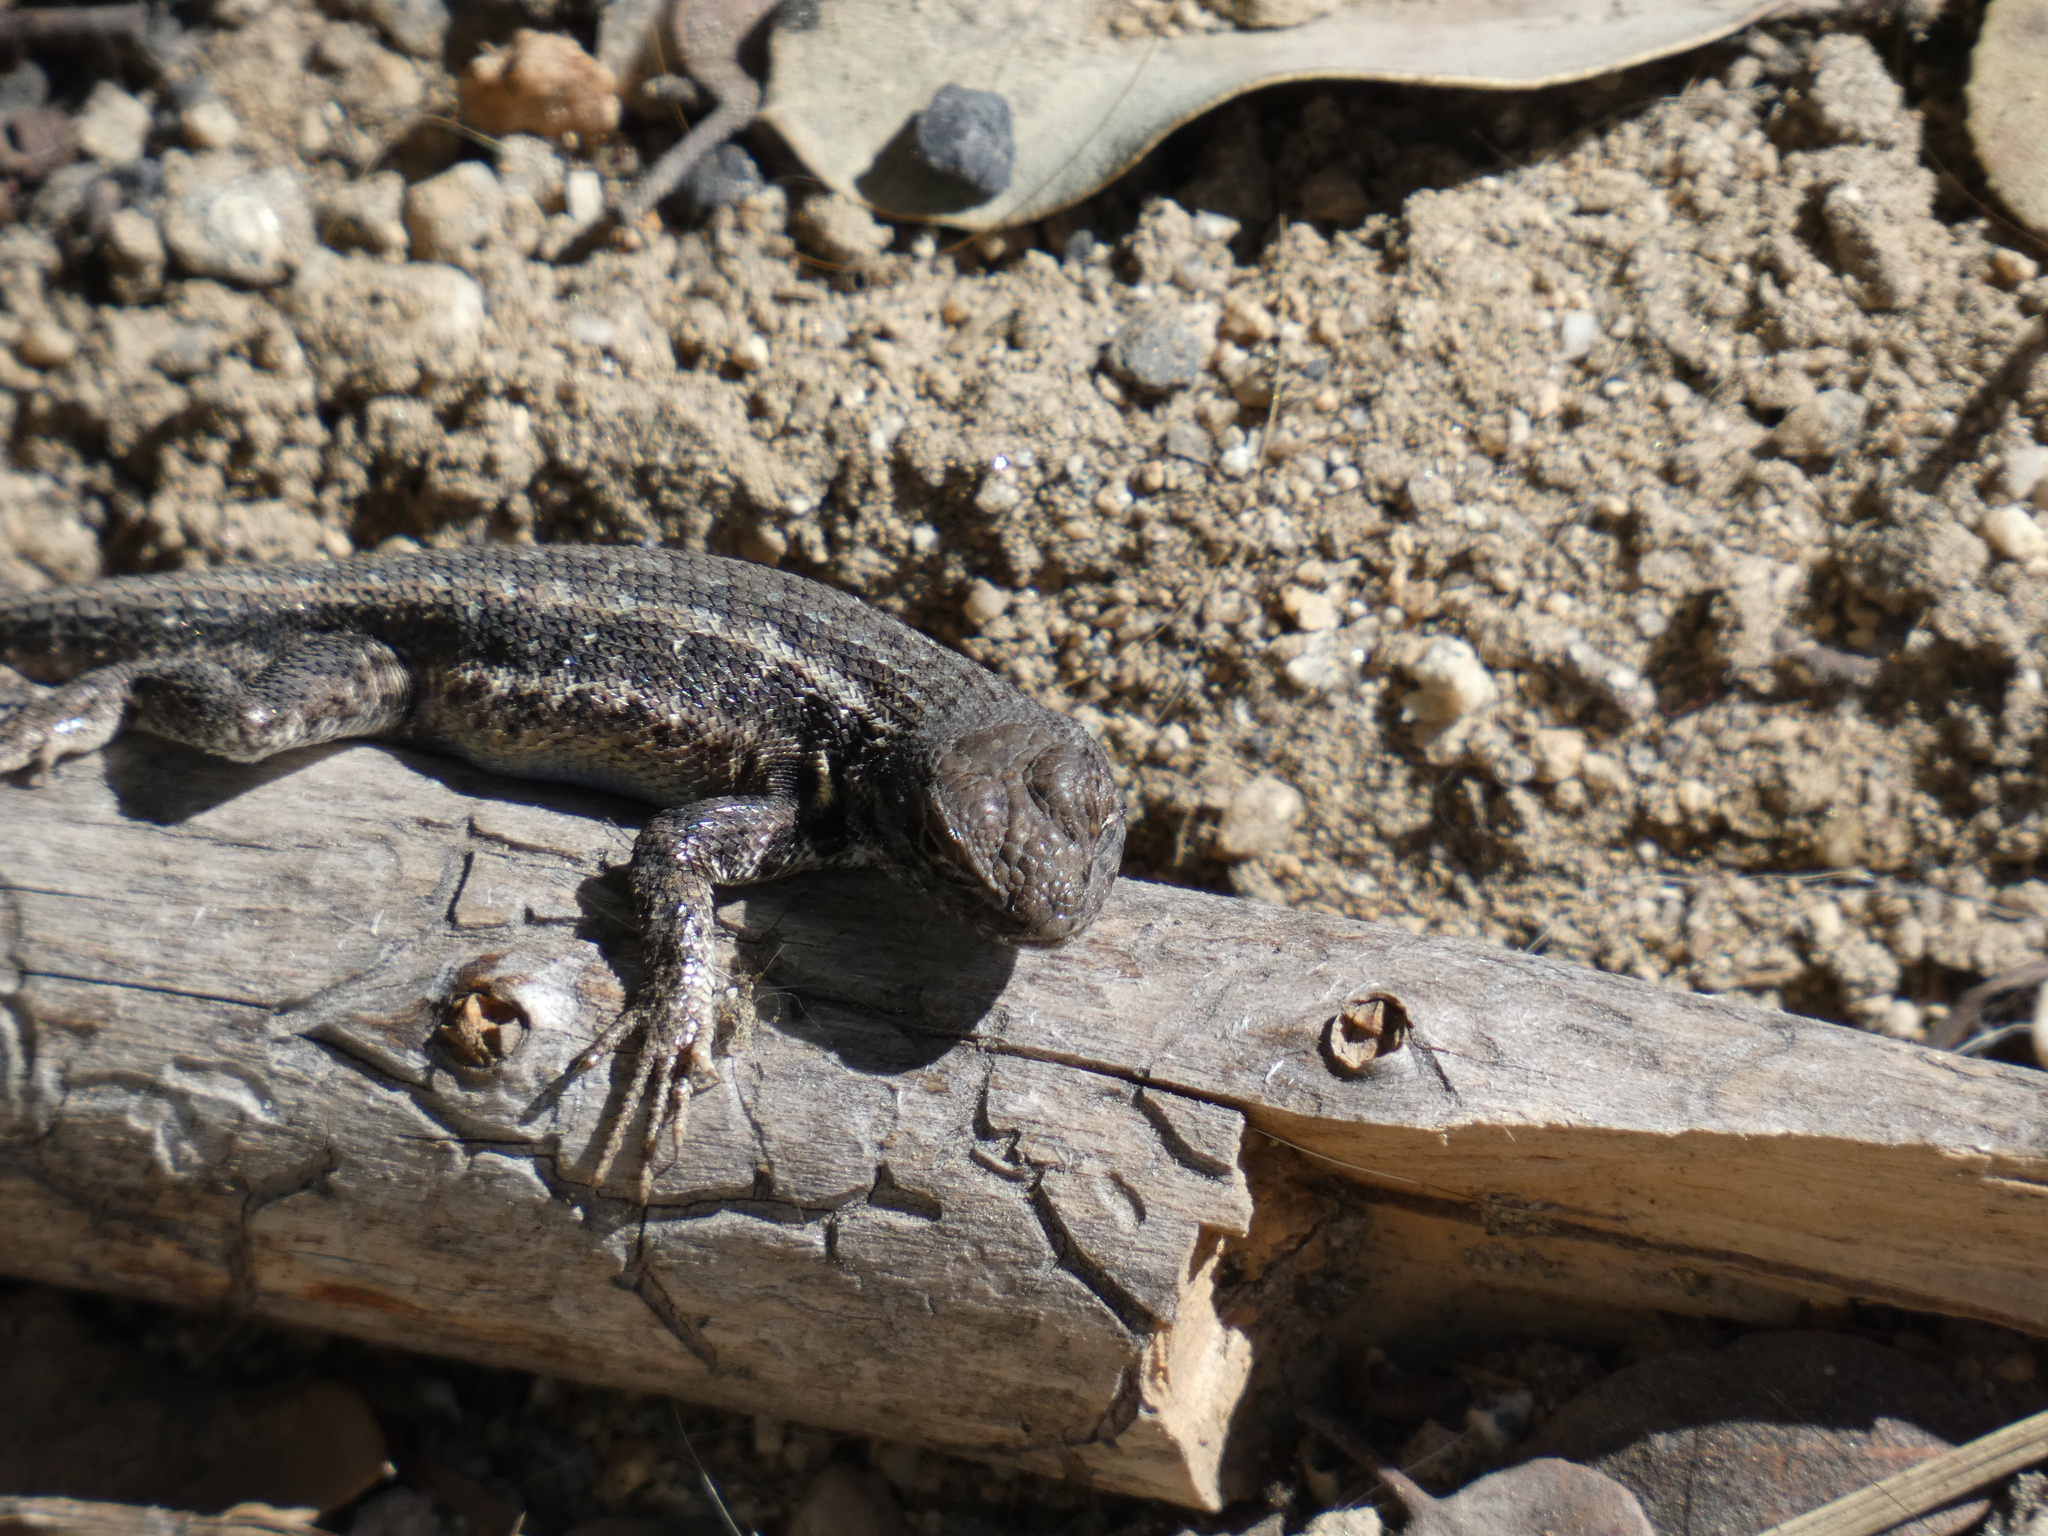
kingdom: Animalia
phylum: Chordata
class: Squamata
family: Phrynosomatidae
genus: Sceloporus
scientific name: Sceloporus graciosus
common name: Sagebrush lizard
